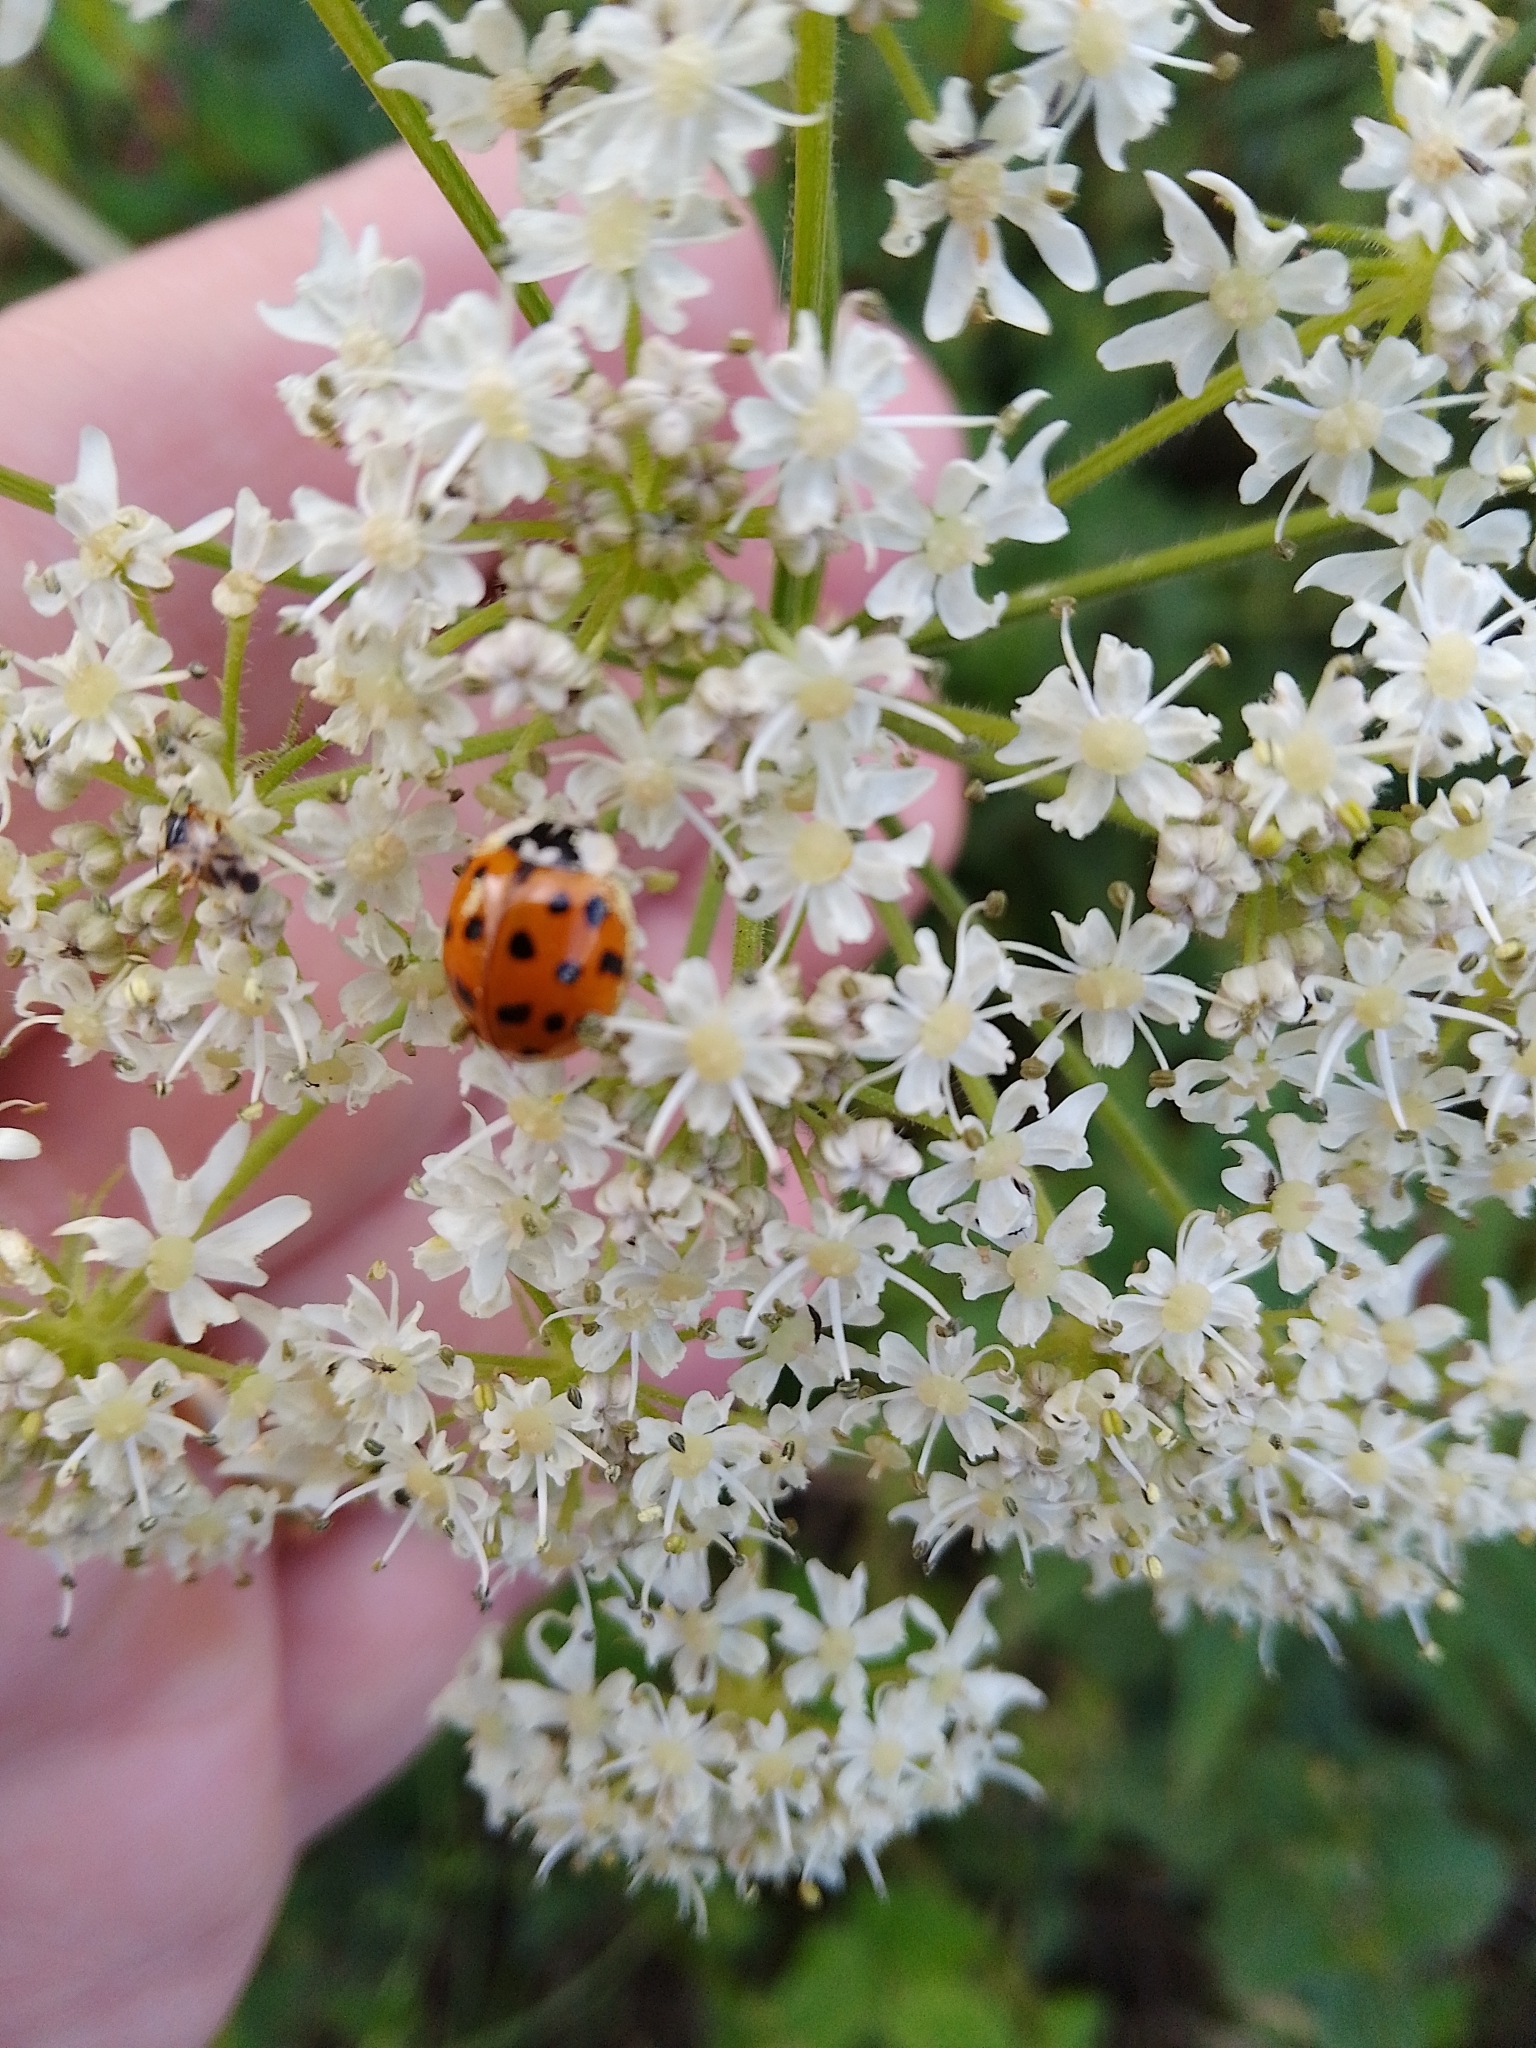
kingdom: Animalia
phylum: Arthropoda
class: Insecta
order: Coleoptera
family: Coccinellidae
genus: Harmonia
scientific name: Harmonia axyridis
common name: Harlequin ladybird
